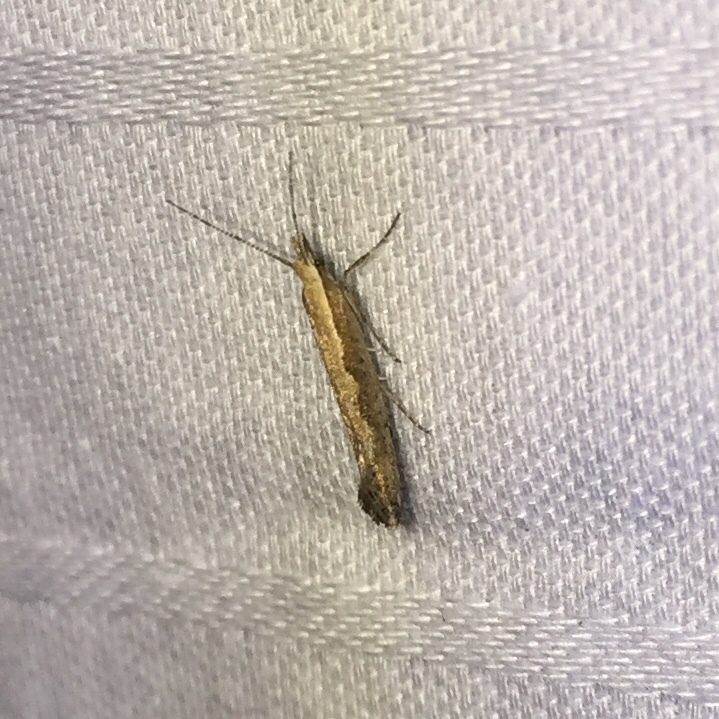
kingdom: Animalia
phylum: Arthropoda
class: Insecta
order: Lepidoptera
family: Plutellidae
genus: Plutella
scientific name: Plutella xylostella
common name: Diamond-back moth
